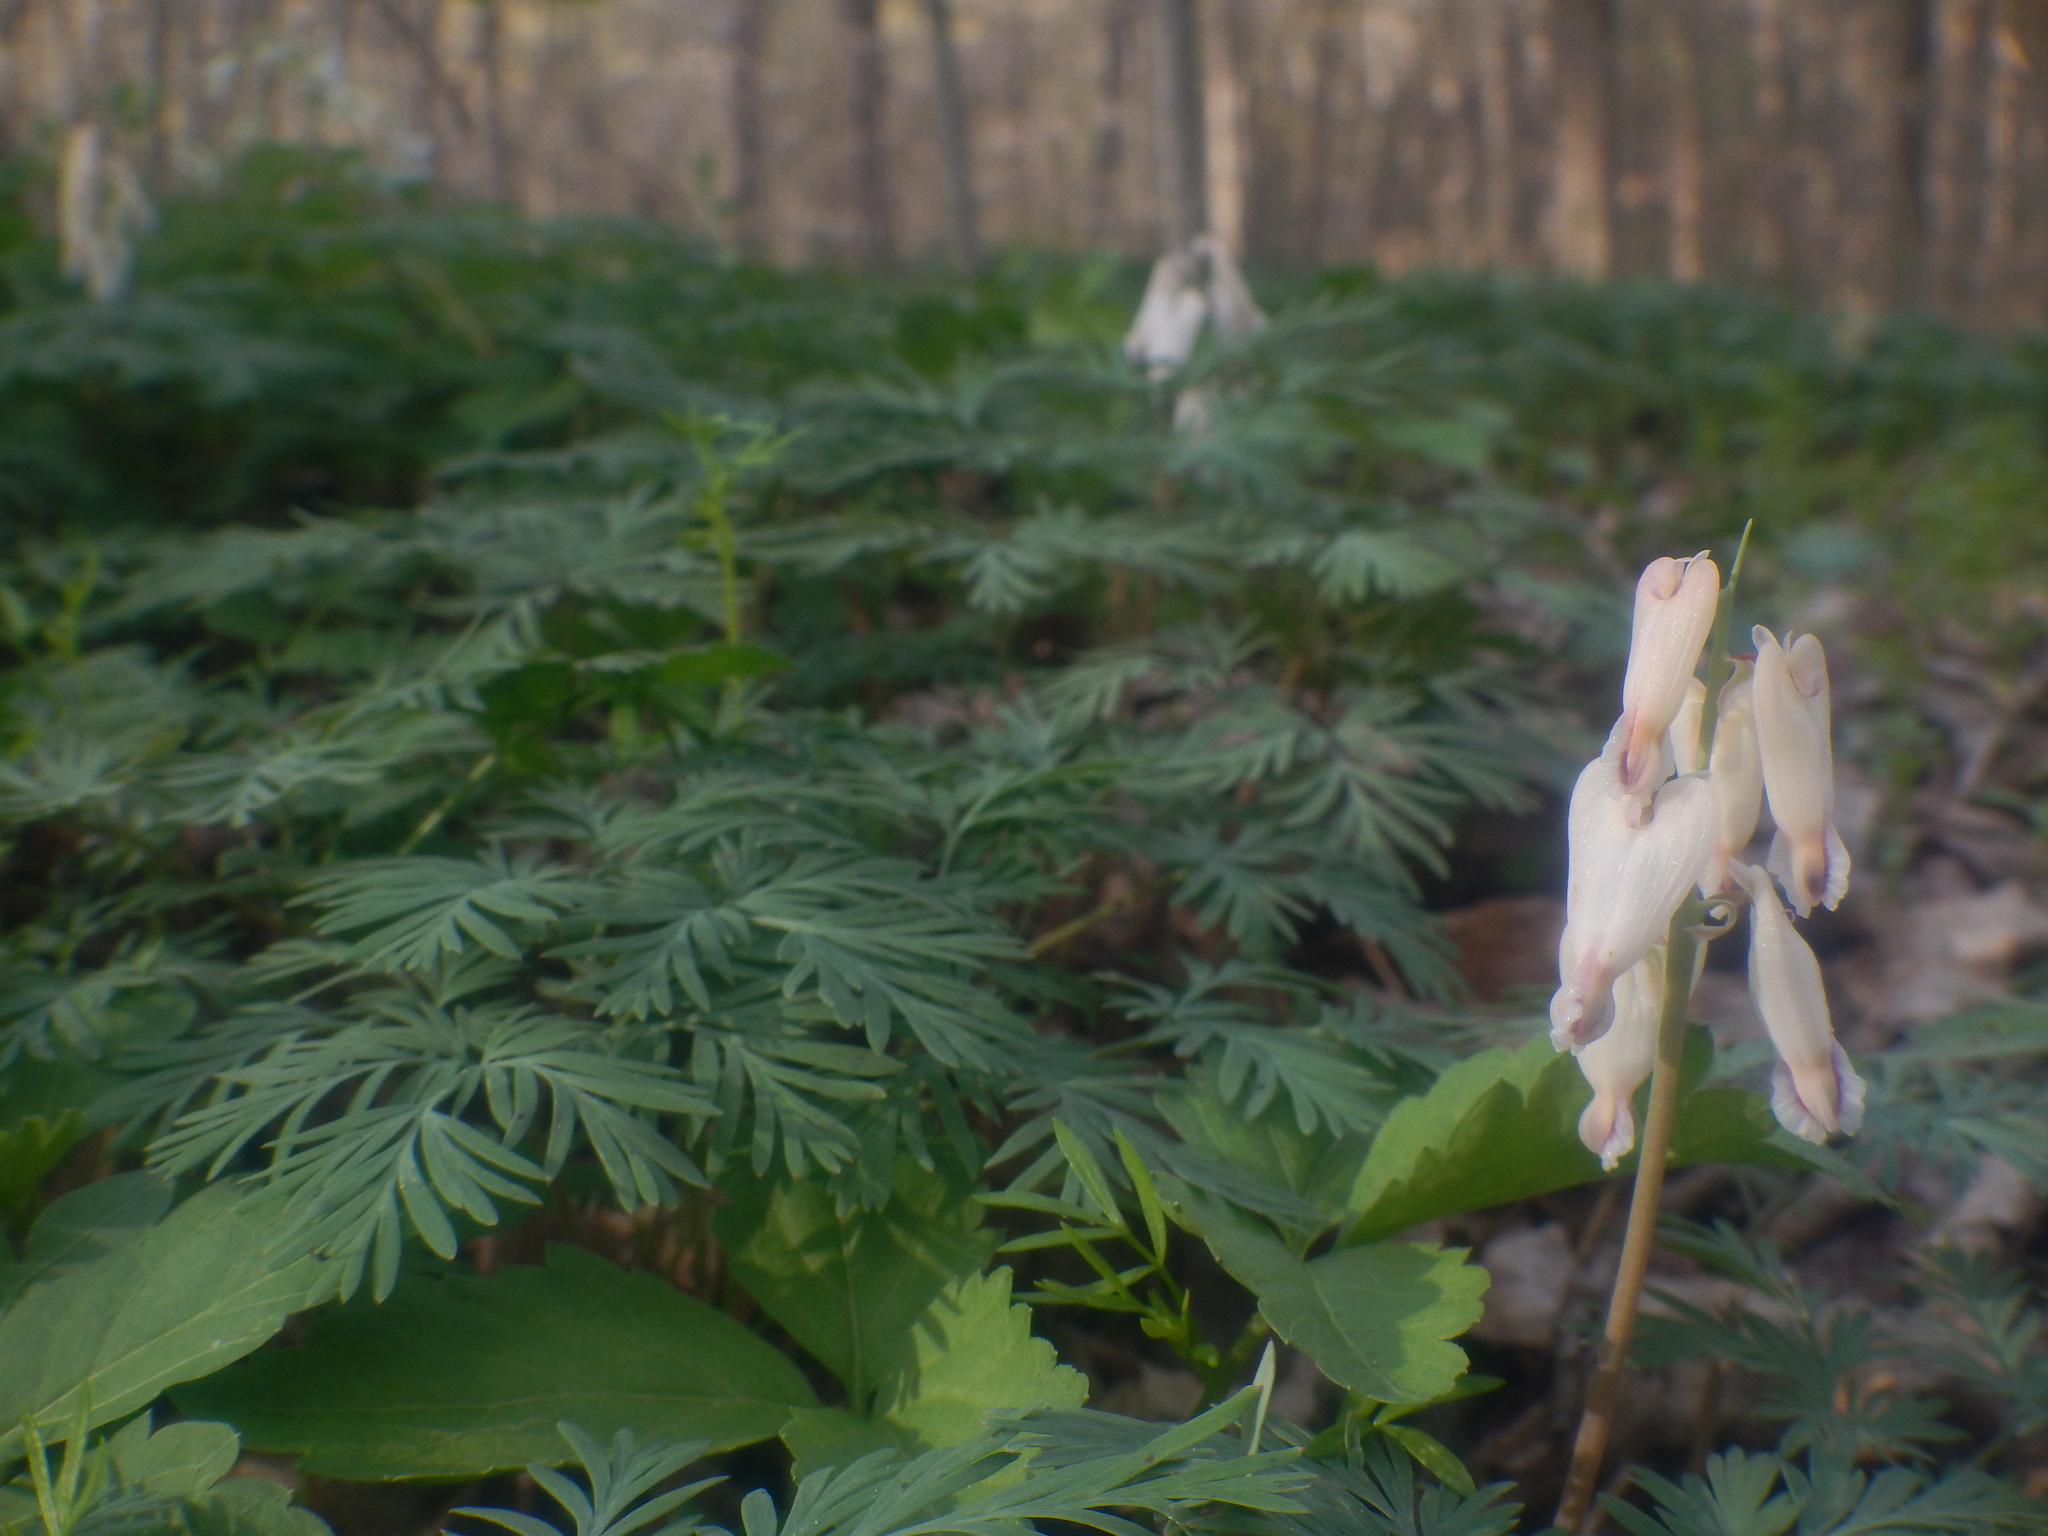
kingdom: Plantae
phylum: Tracheophyta
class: Magnoliopsida
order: Ranunculales
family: Papaveraceae
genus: Dicentra
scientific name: Dicentra canadensis
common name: Squirrel-corn
